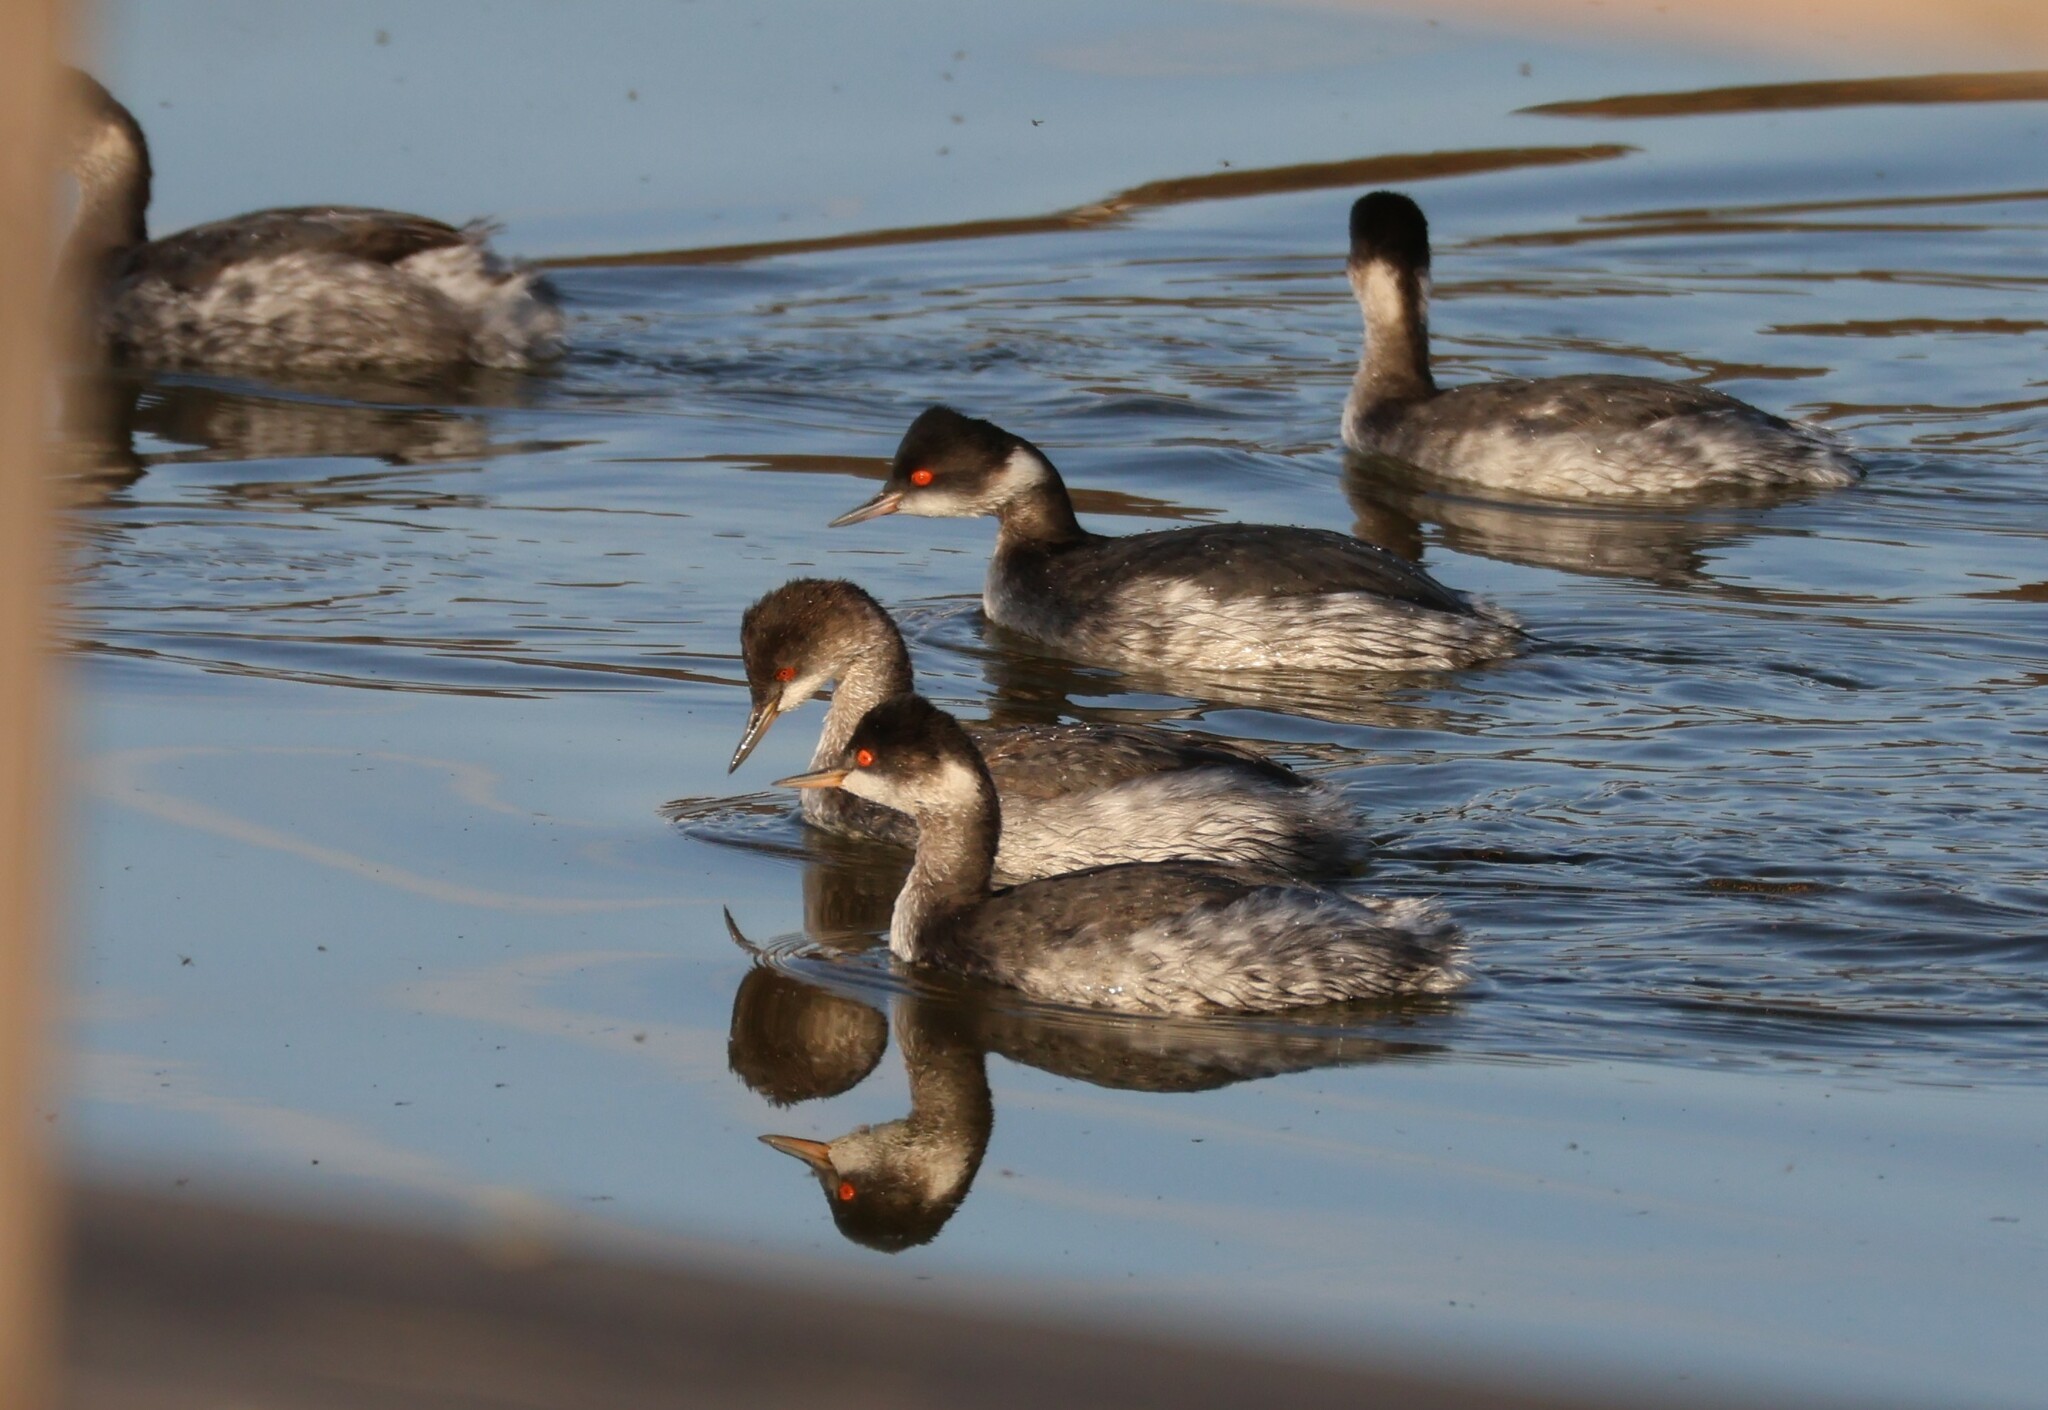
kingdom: Animalia
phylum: Chordata
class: Aves
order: Podicipediformes
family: Podicipedidae
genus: Podiceps
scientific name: Podiceps nigricollis
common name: Black-necked grebe
